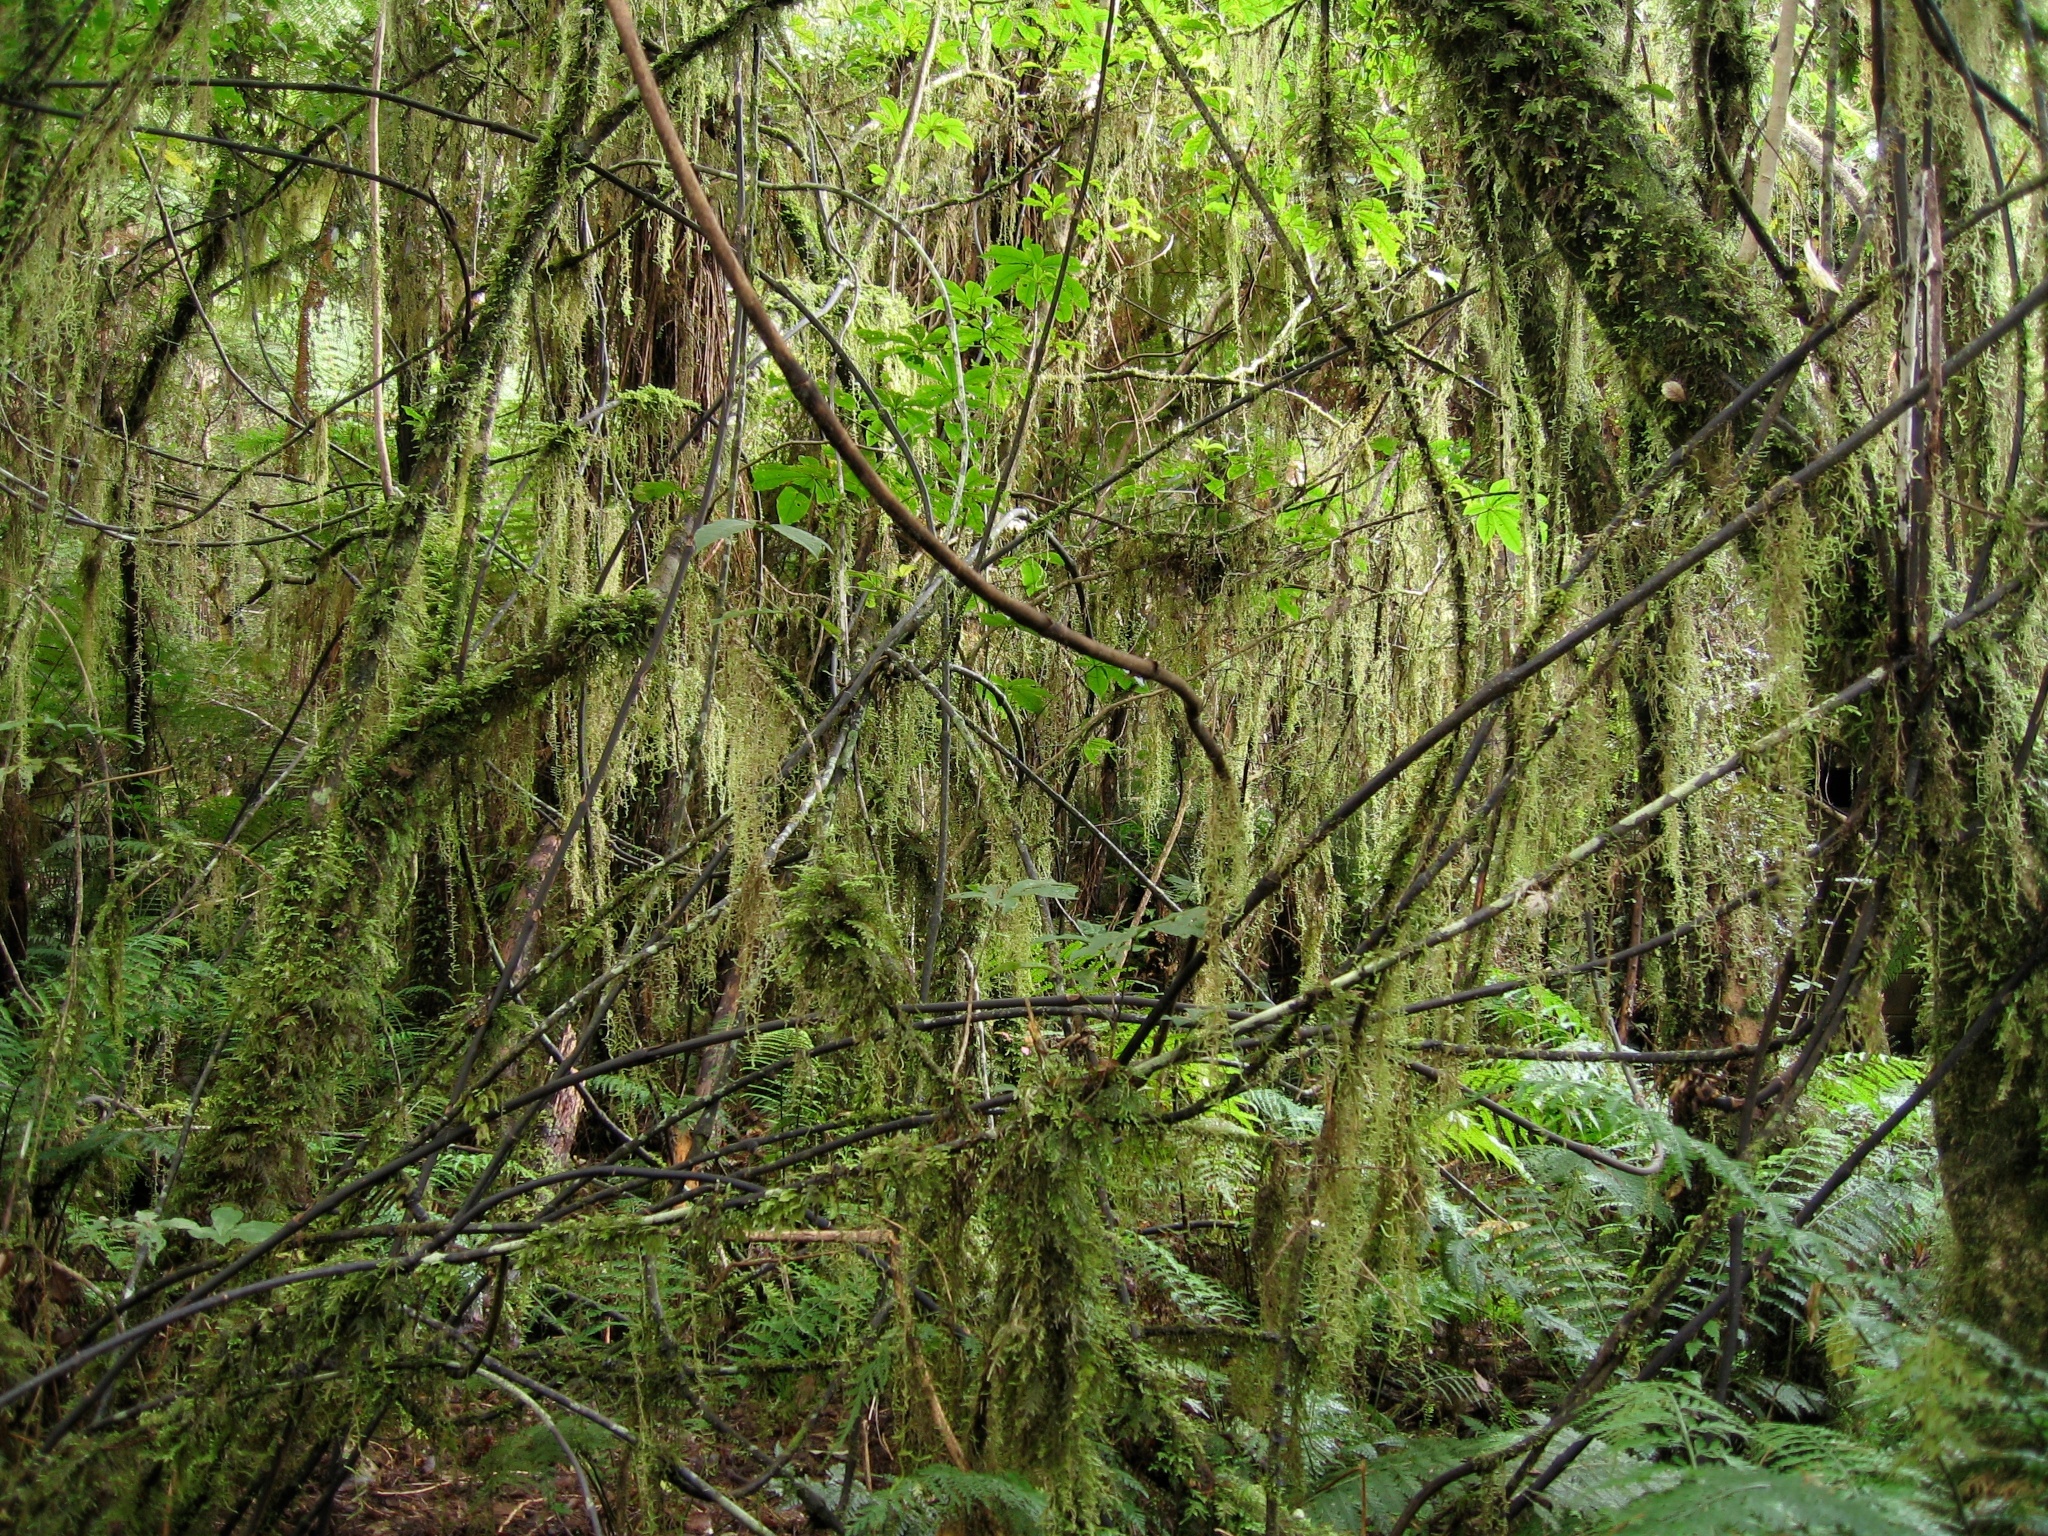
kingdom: Plantae
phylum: Tracheophyta
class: Liliopsida
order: Liliales
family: Ripogonaceae
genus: Ripogonum
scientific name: Ripogonum scandens
